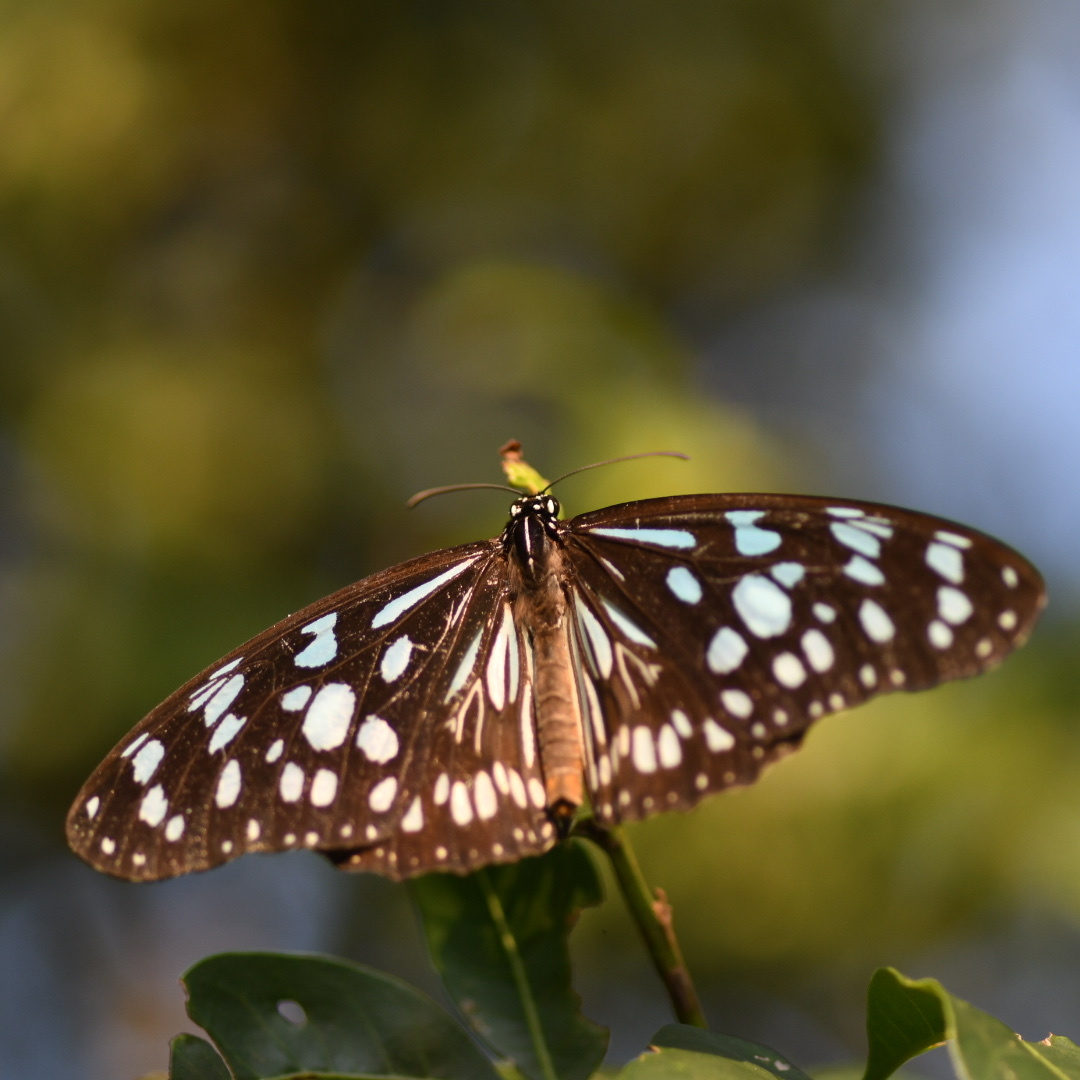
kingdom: Animalia
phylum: Arthropoda
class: Insecta
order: Lepidoptera
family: Nymphalidae
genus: Tirumala
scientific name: Tirumala petiverana
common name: Blue monarch
